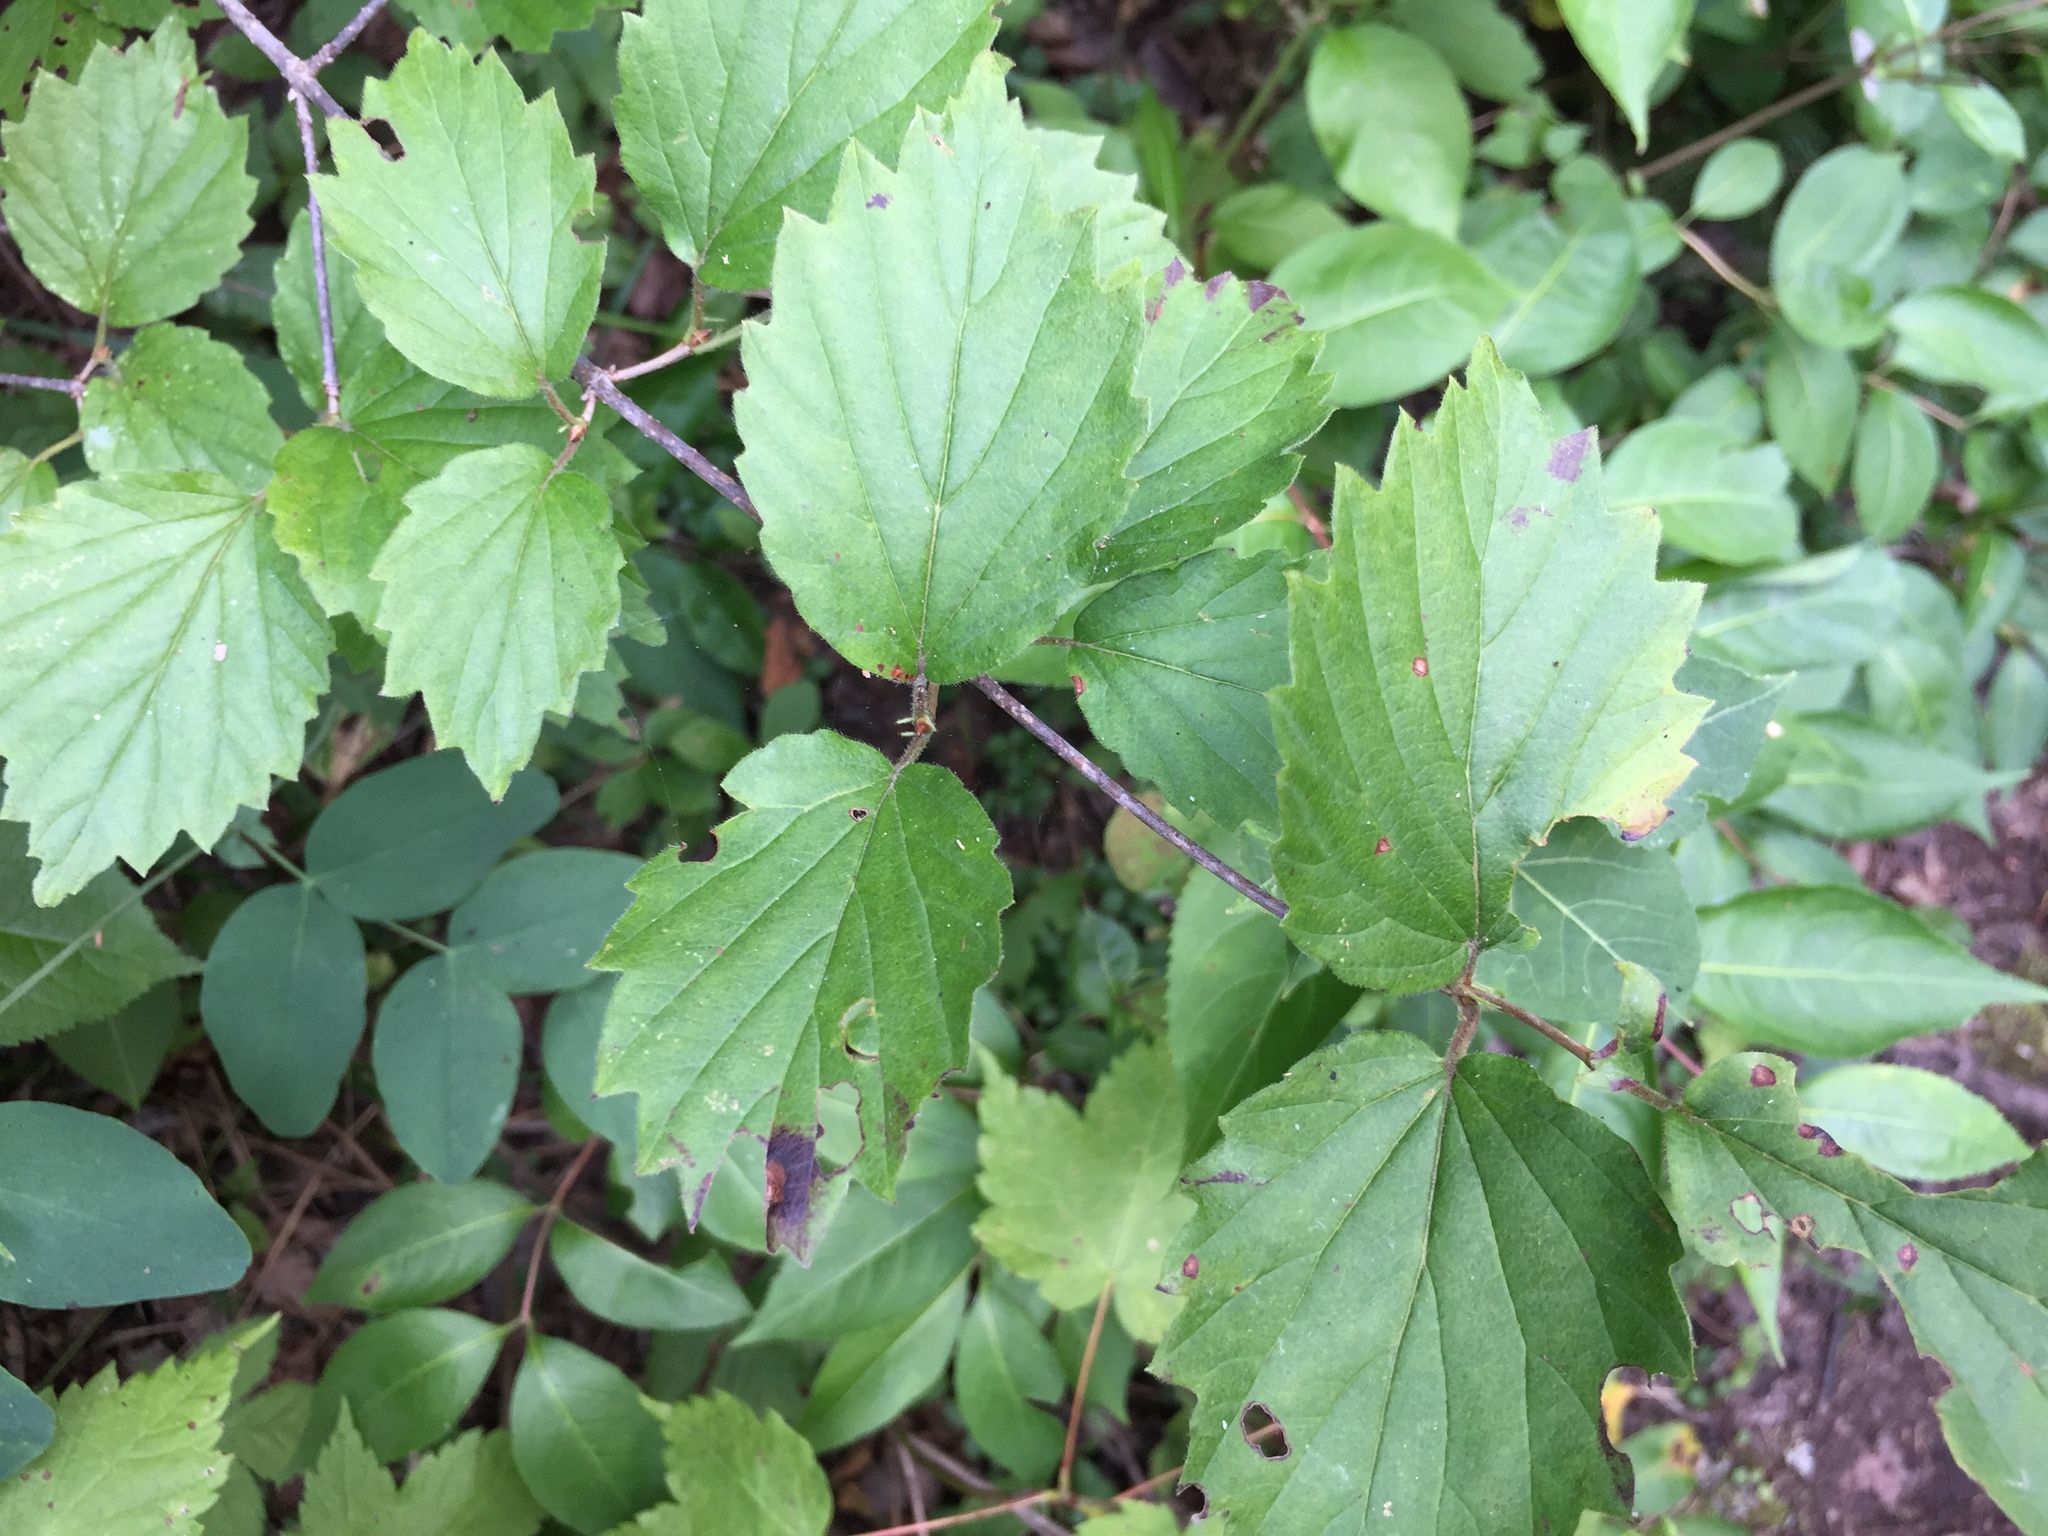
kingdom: Plantae
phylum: Tracheophyta
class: Magnoliopsida
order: Dipsacales
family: Viburnaceae
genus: Viburnum
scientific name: Viburnum rafinesqueanum
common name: Downy arrow-wood
